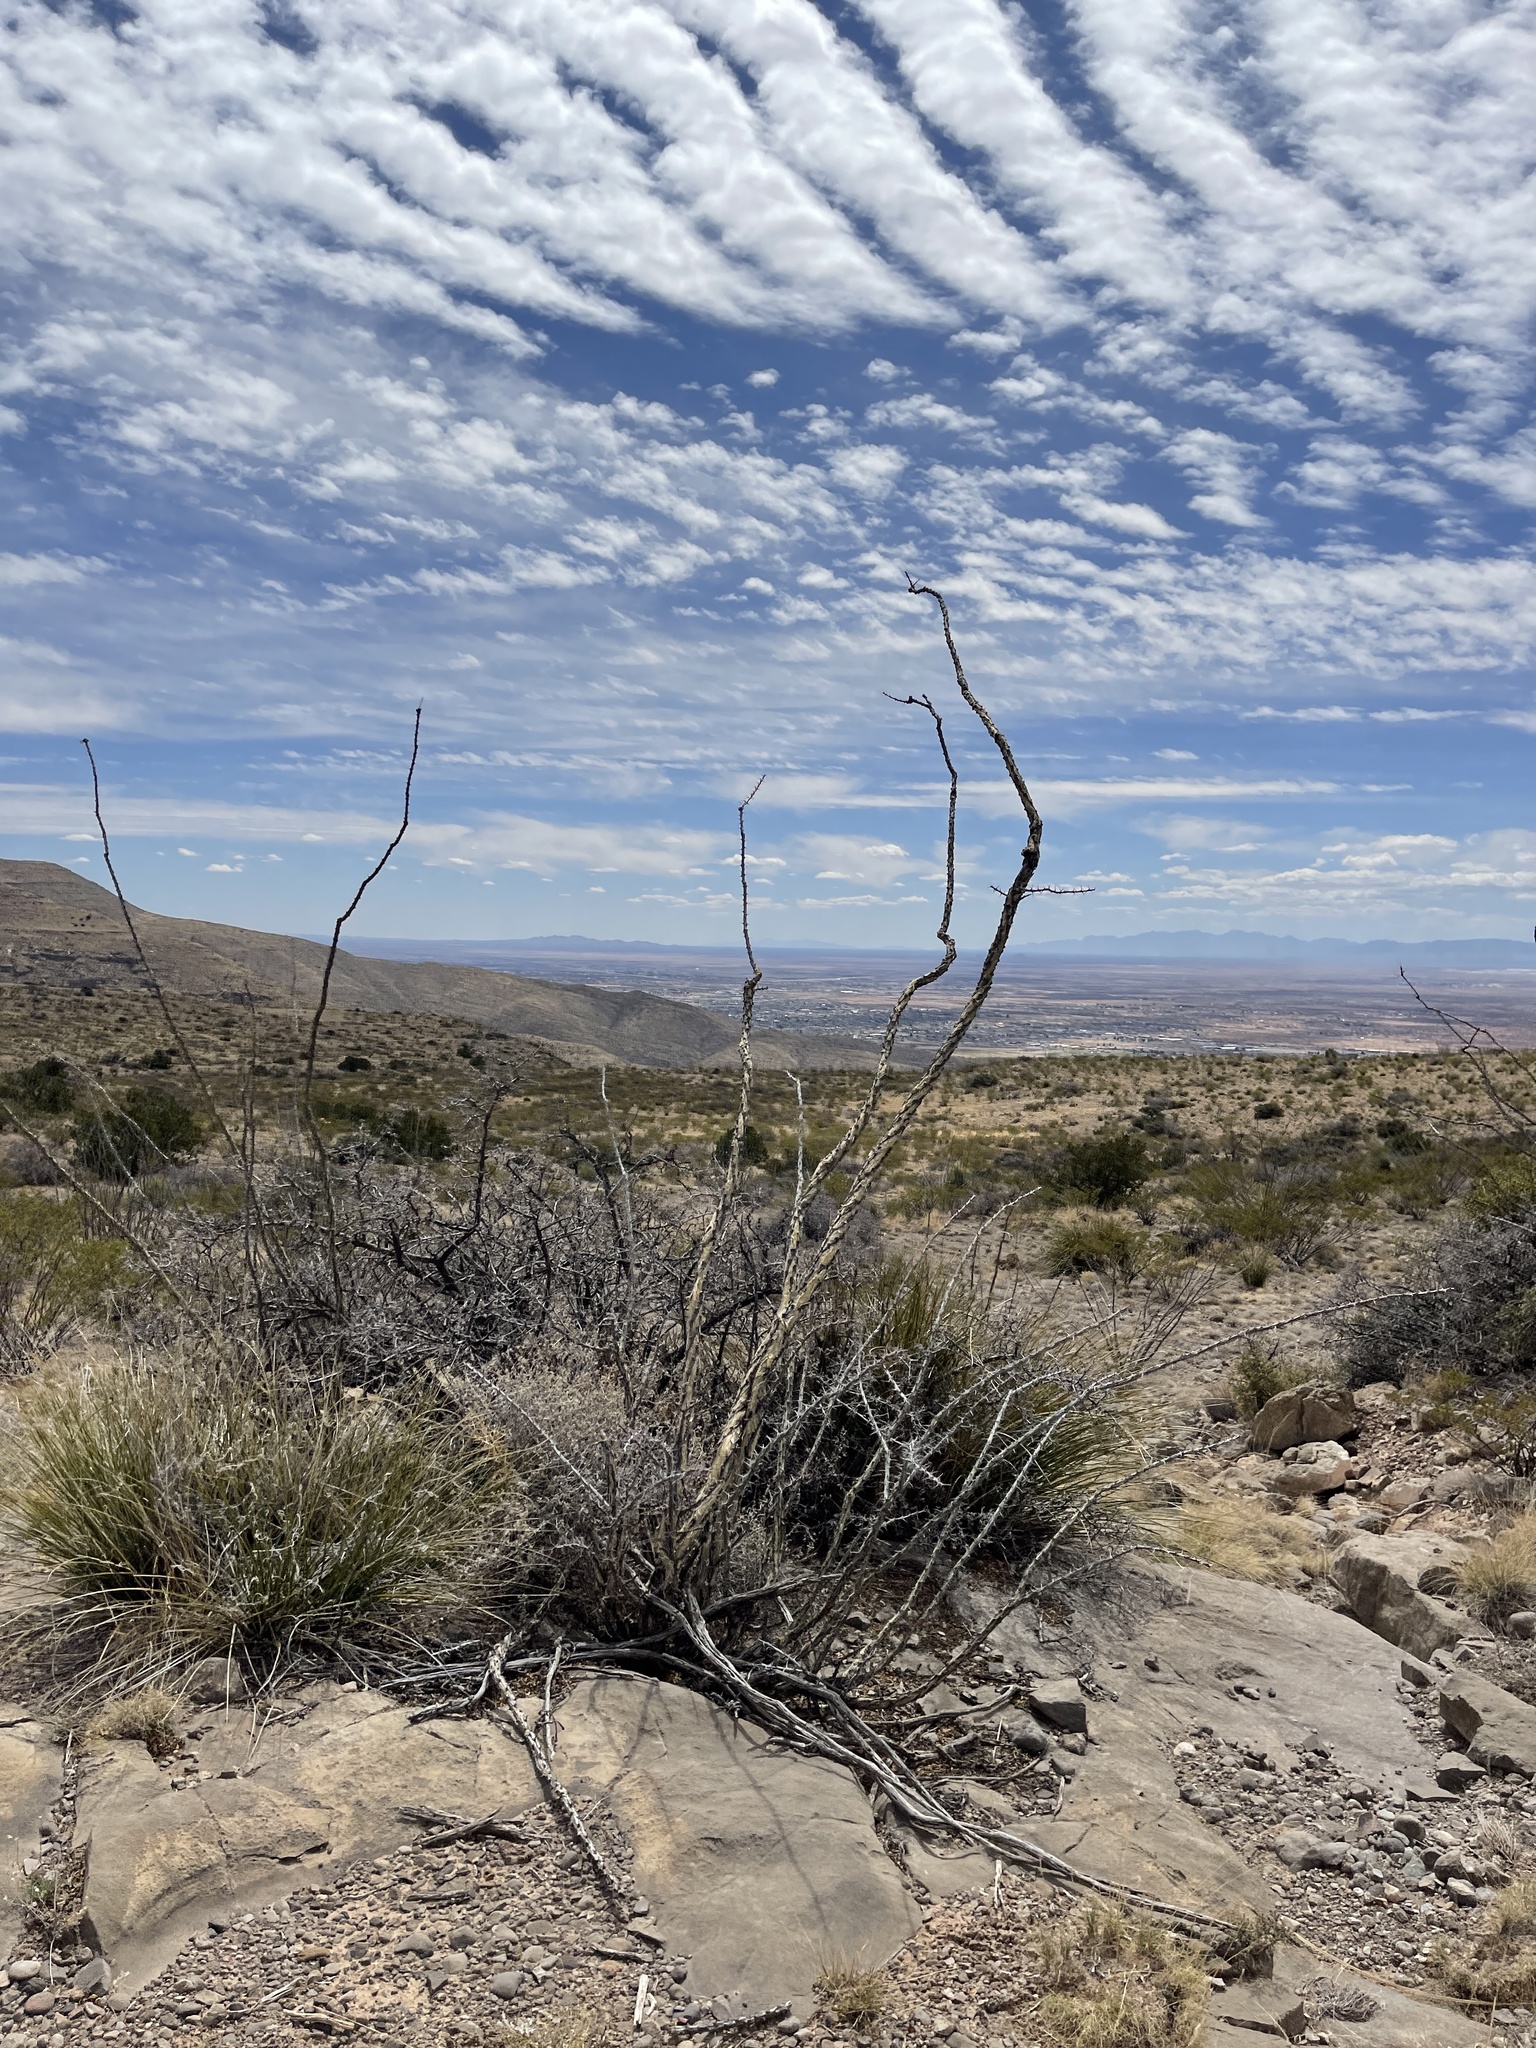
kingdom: Plantae
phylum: Tracheophyta
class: Magnoliopsida
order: Ericales
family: Fouquieriaceae
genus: Fouquieria
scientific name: Fouquieria splendens
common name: Vine-cactus
